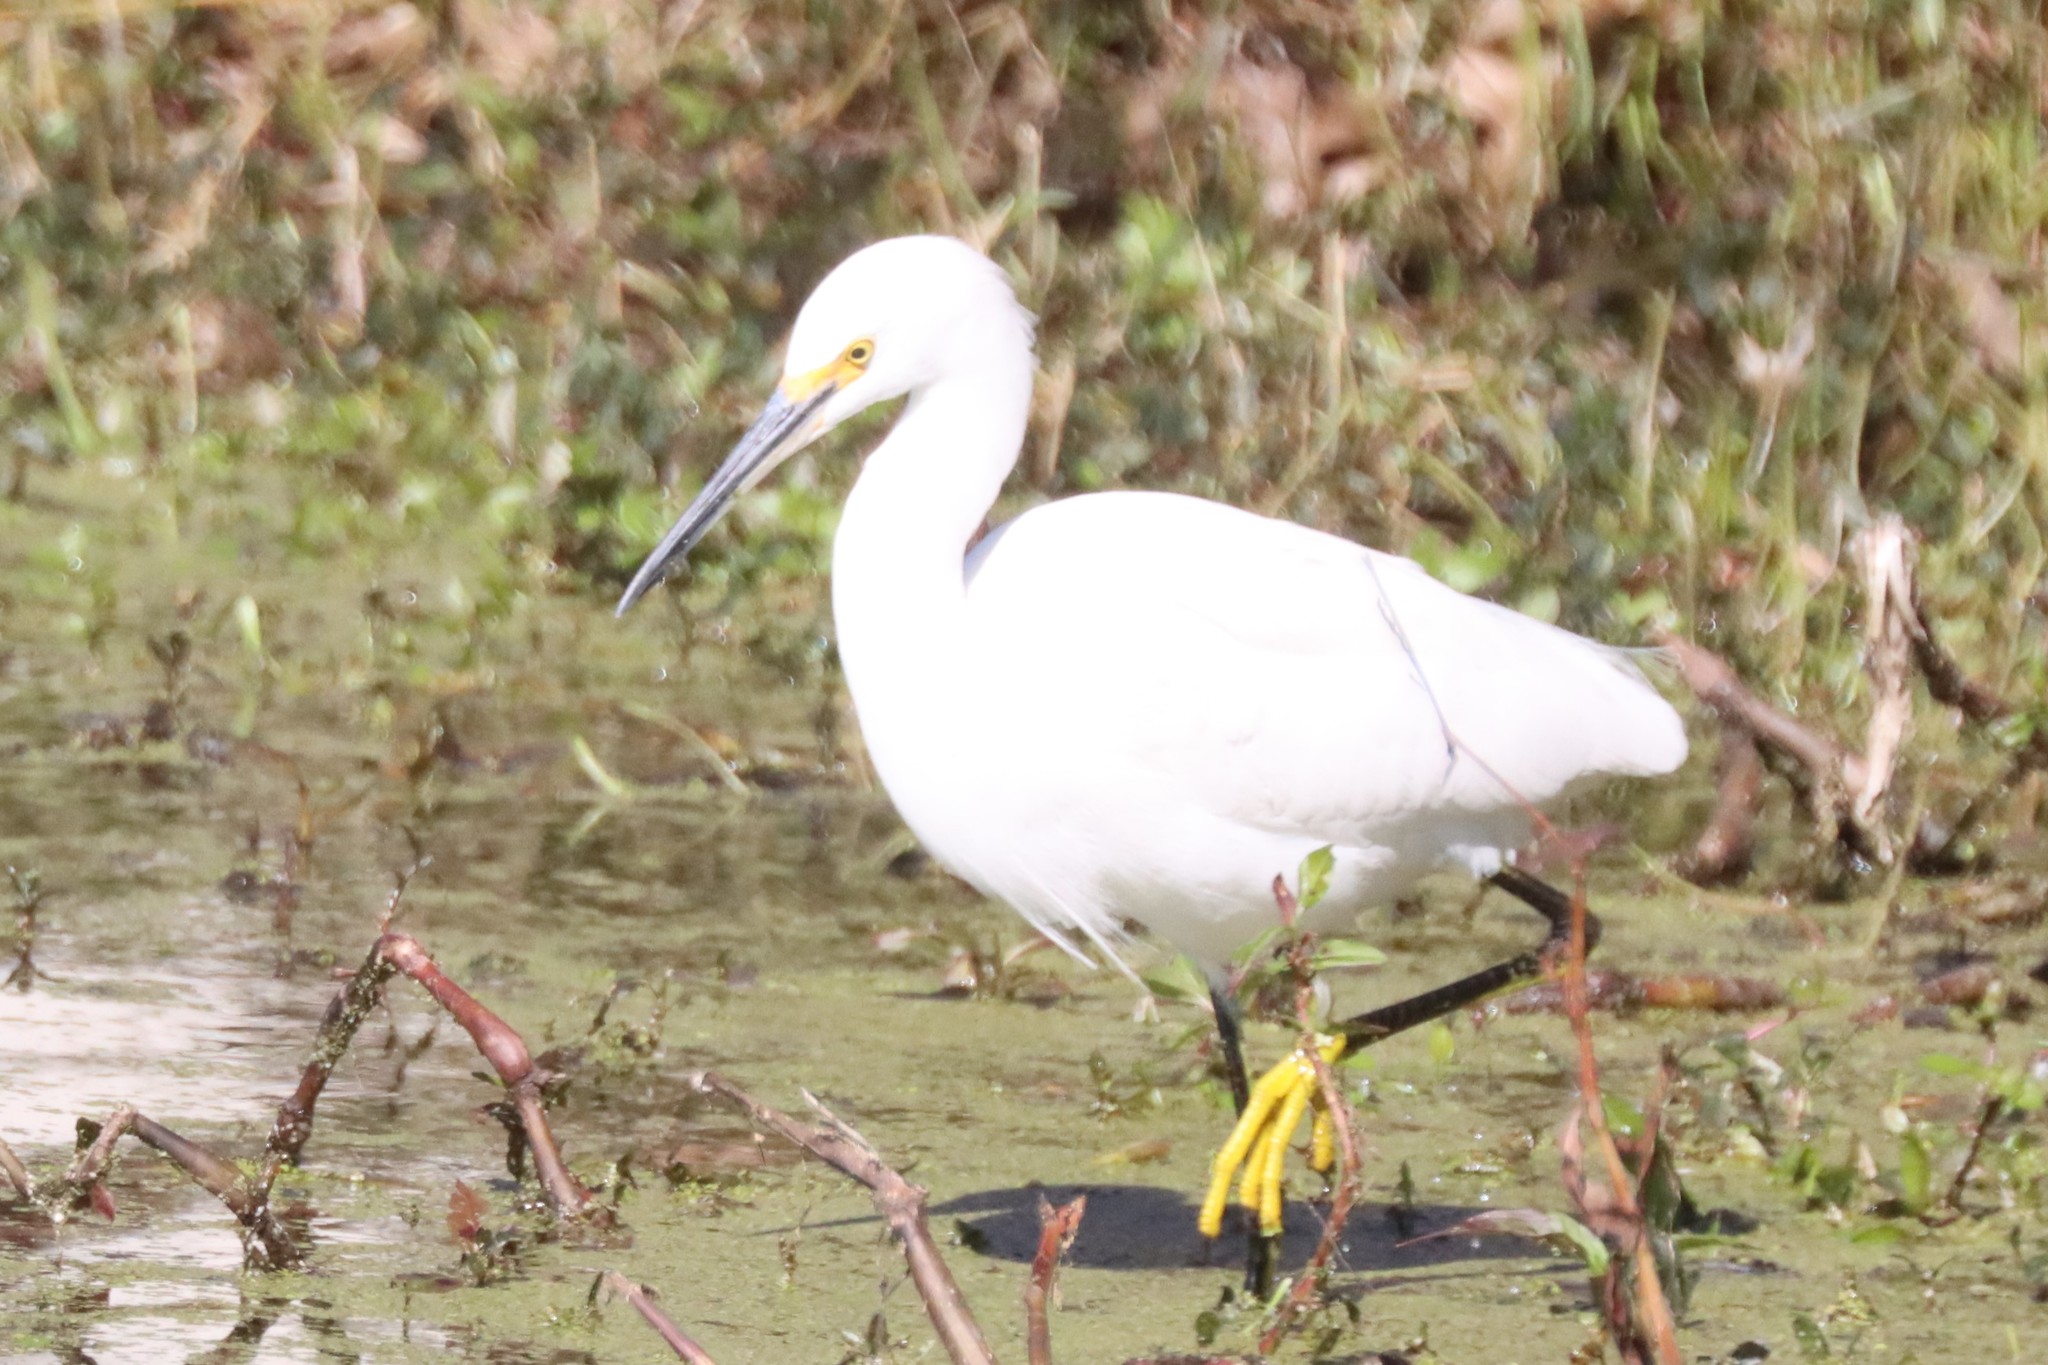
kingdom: Animalia
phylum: Chordata
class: Aves
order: Pelecaniformes
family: Ardeidae
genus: Egretta
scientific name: Egretta thula
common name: Snowy egret
